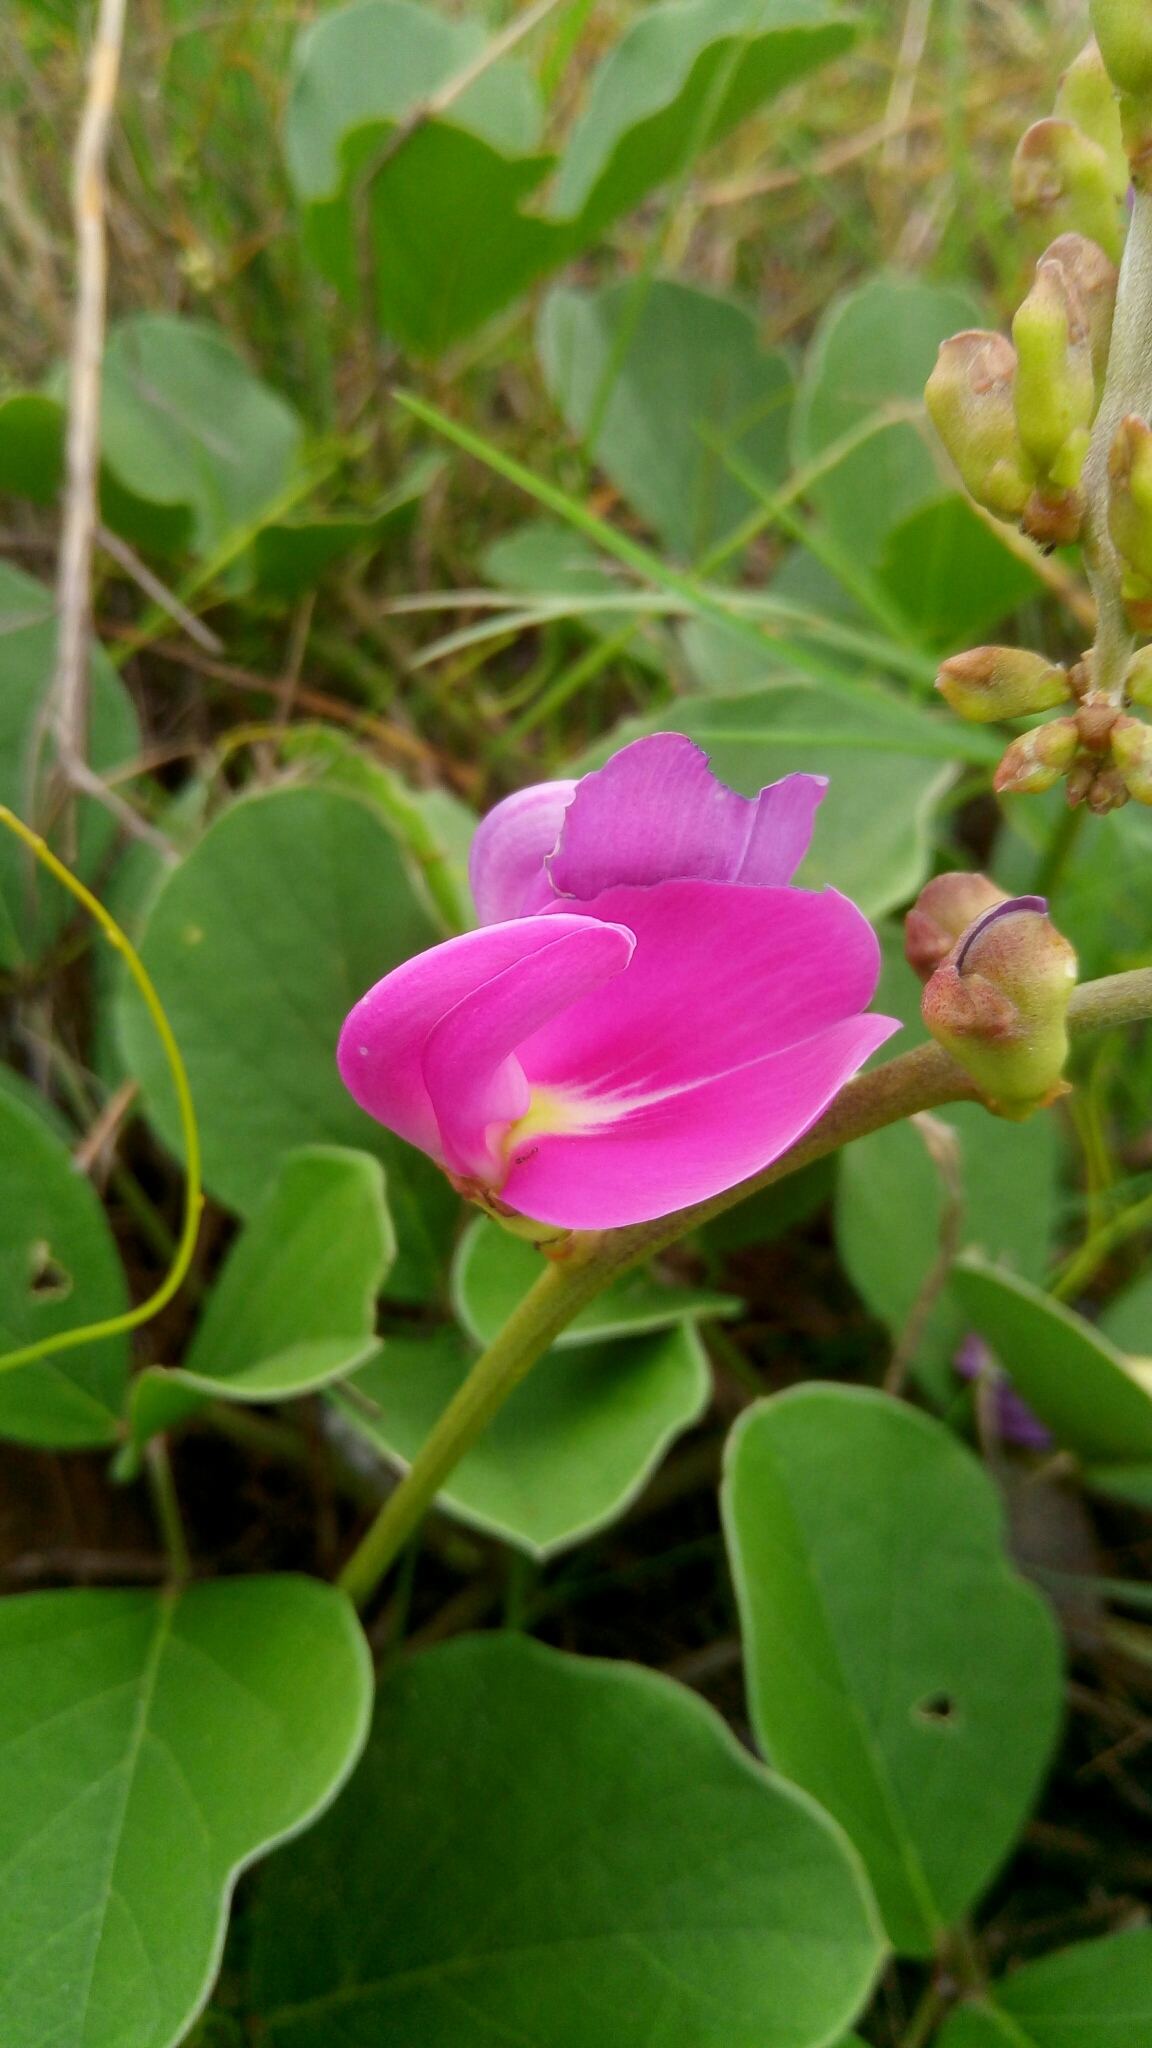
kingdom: Plantae
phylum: Tracheophyta
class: Magnoliopsida
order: Fabales
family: Fabaceae
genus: Canavalia
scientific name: Canavalia rosea
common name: Beach-bean
